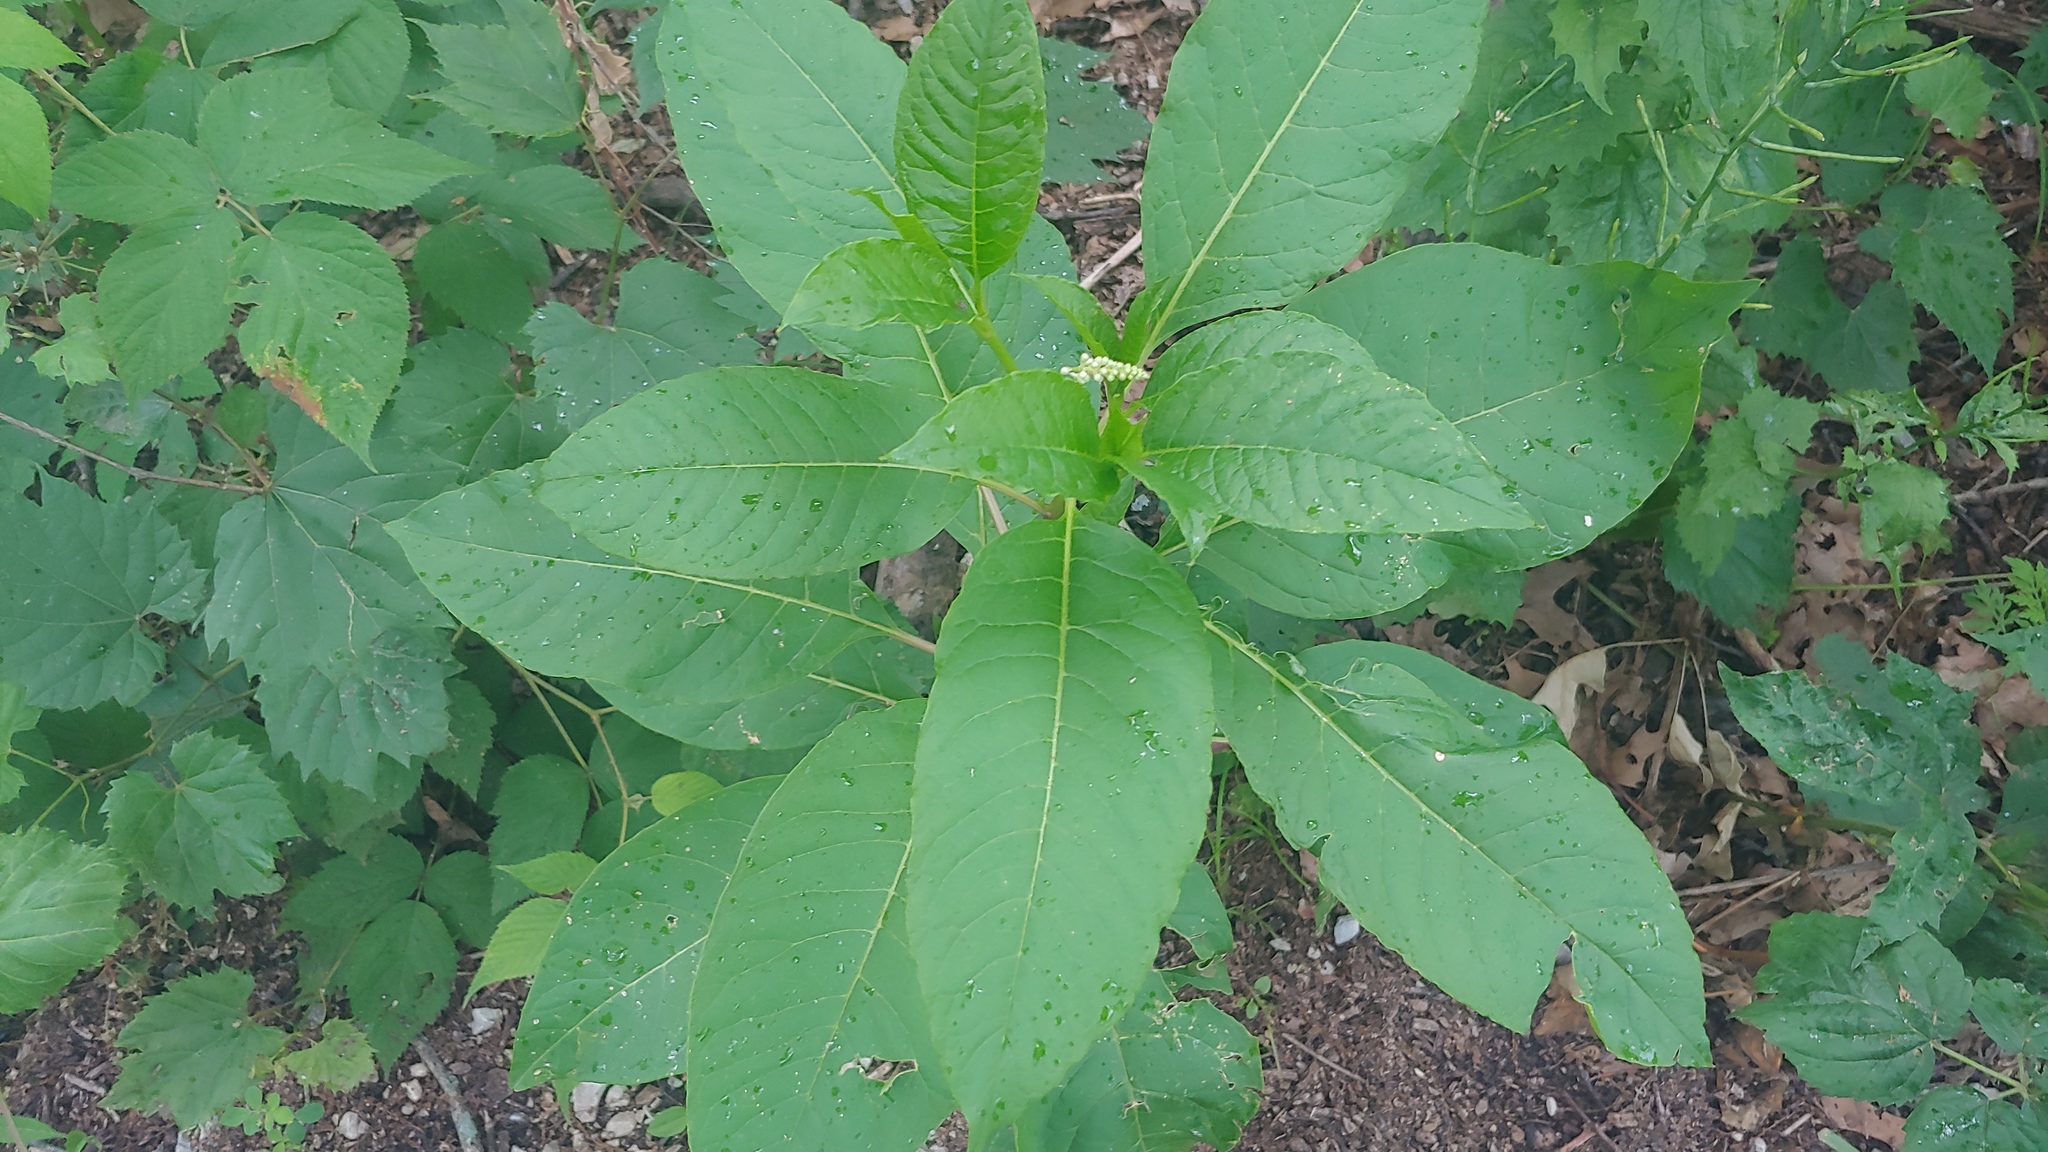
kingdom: Plantae
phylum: Tracheophyta
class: Magnoliopsida
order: Caryophyllales
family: Phytolaccaceae
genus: Phytolacca
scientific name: Phytolacca americana
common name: American pokeweed
